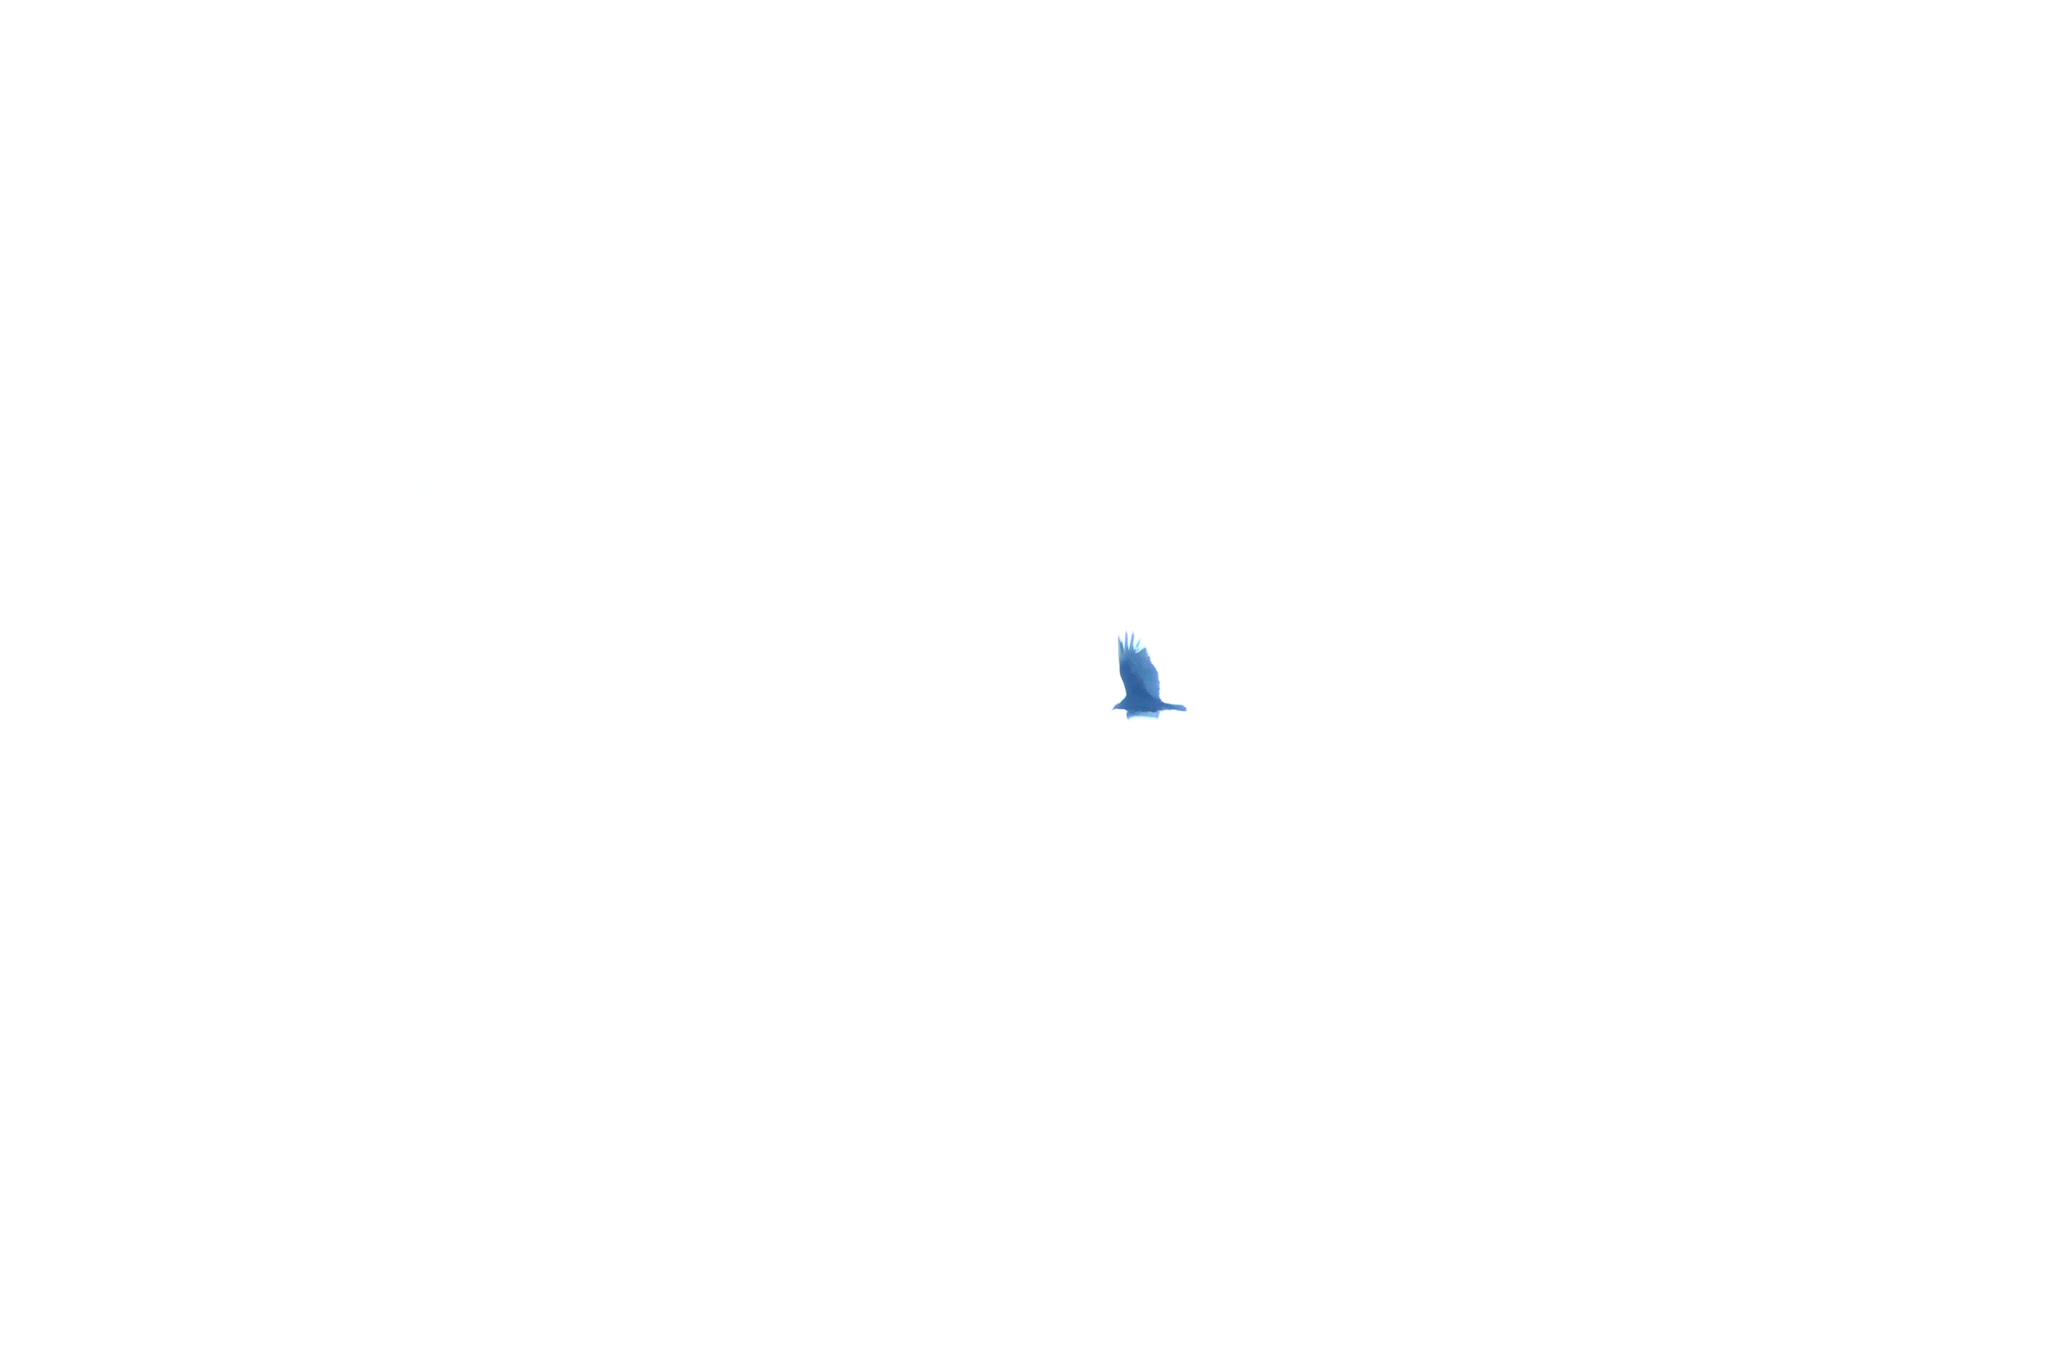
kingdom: Animalia
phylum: Chordata
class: Aves
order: Accipitriformes
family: Cathartidae
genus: Cathartes
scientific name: Cathartes aura
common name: Turkey vulture
